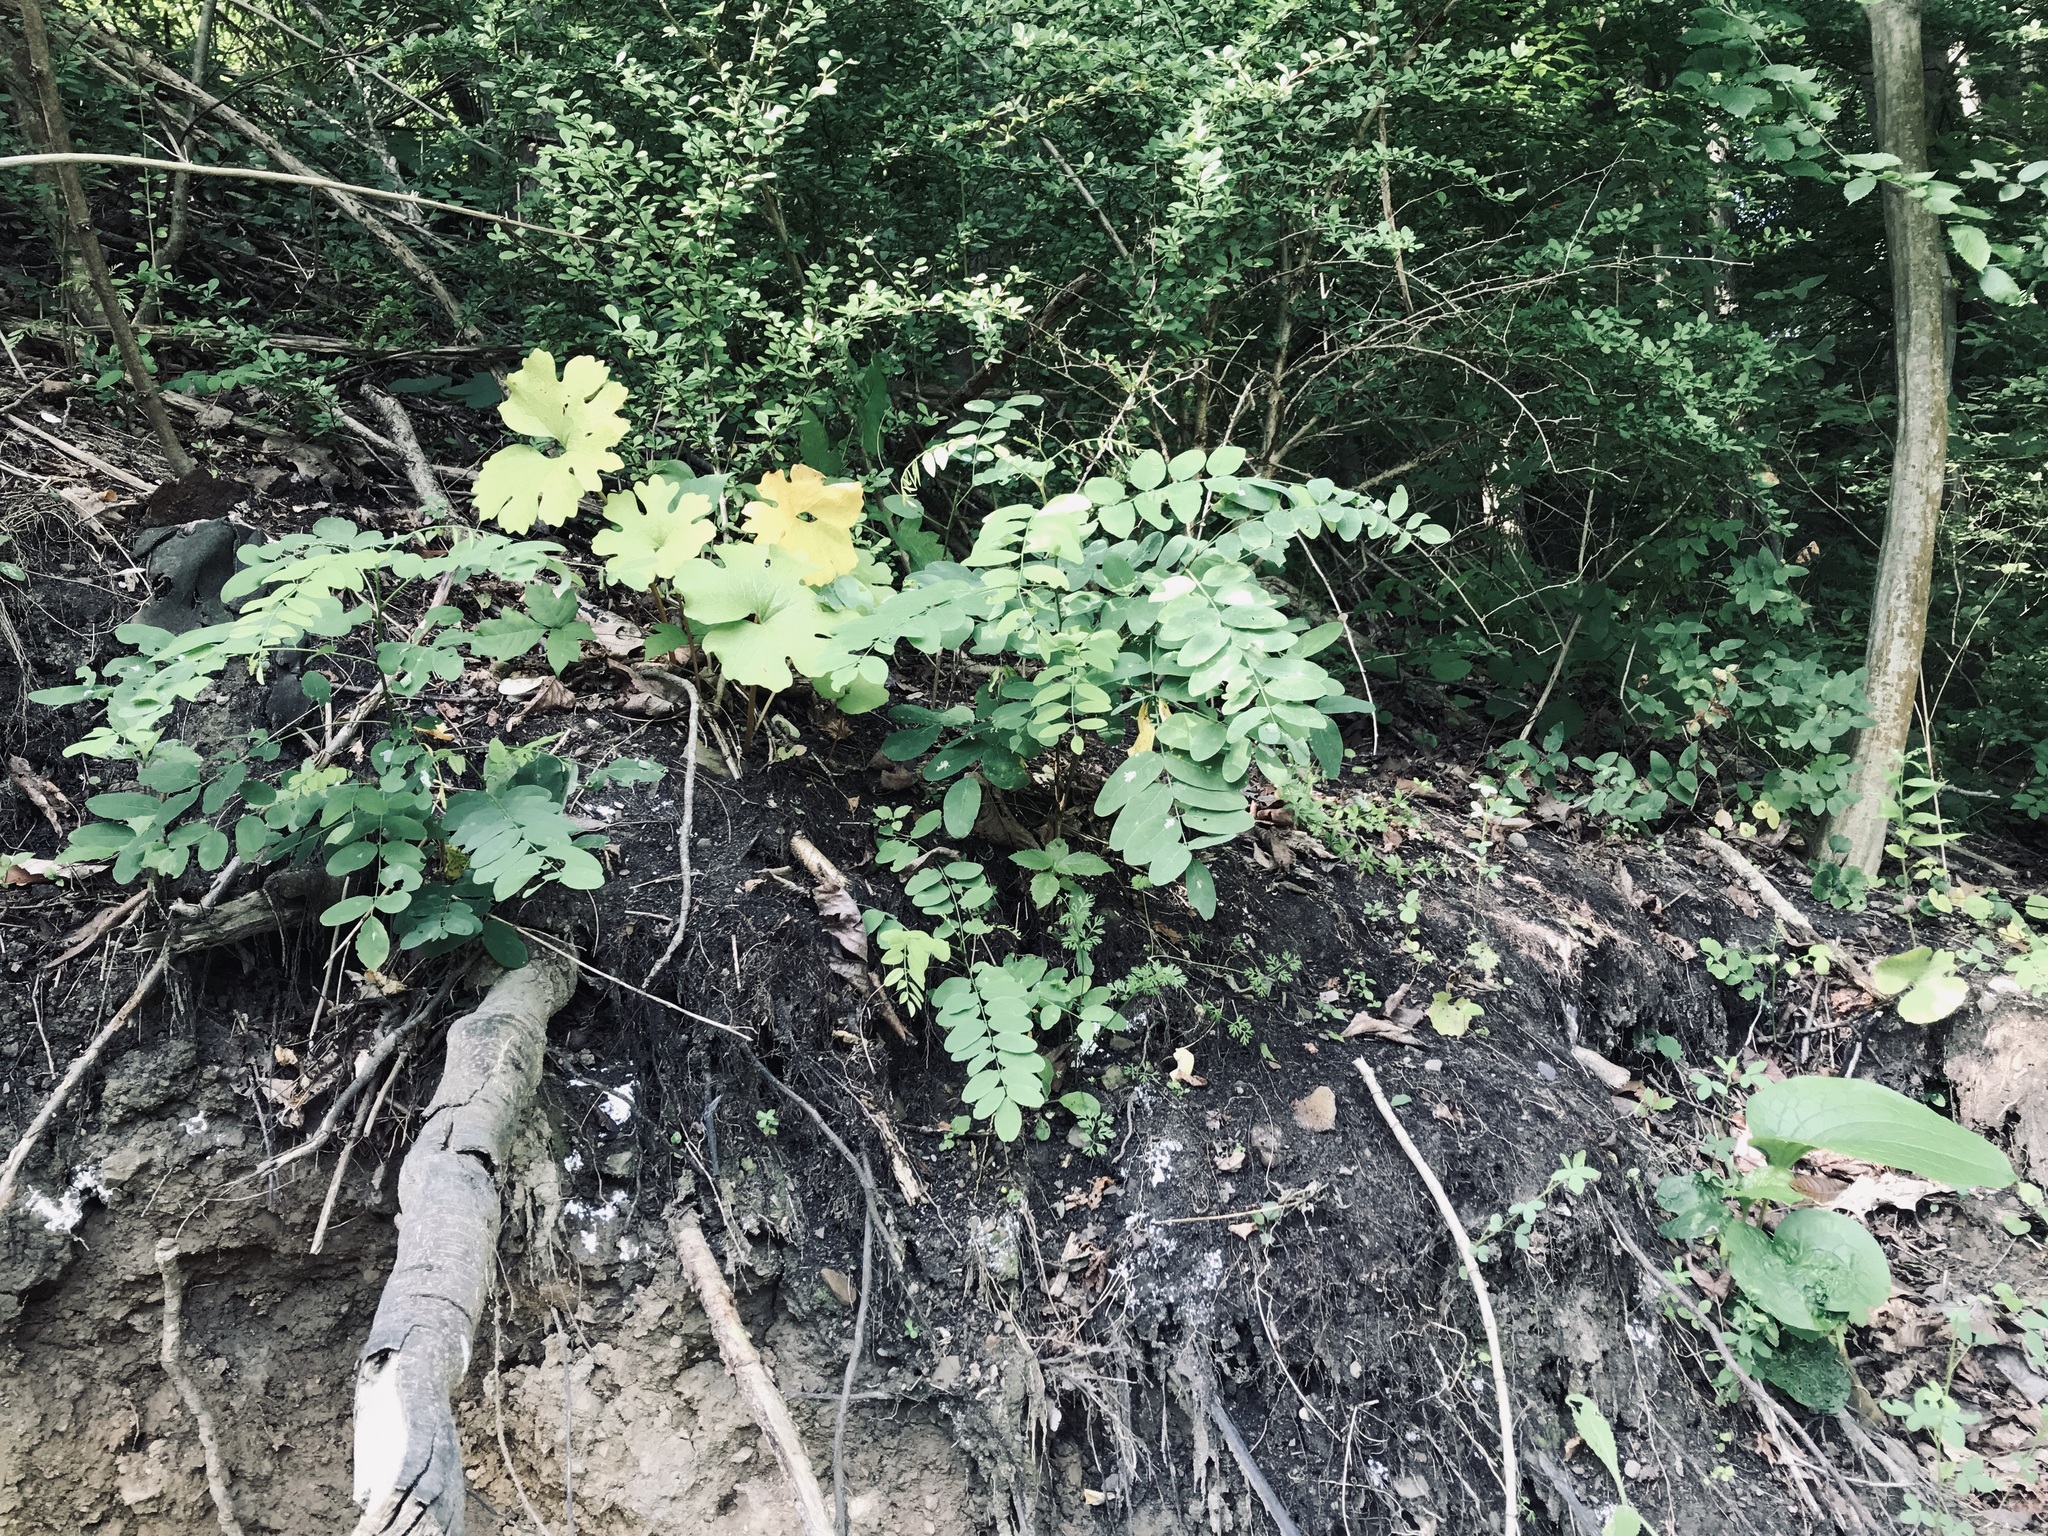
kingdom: Plantae
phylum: Tracheophyta
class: Magnoliopsida
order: Ranunculales
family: Papaveraceae
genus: Sanguinaria
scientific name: Sanguinaria canadensis
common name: Bloodroot
